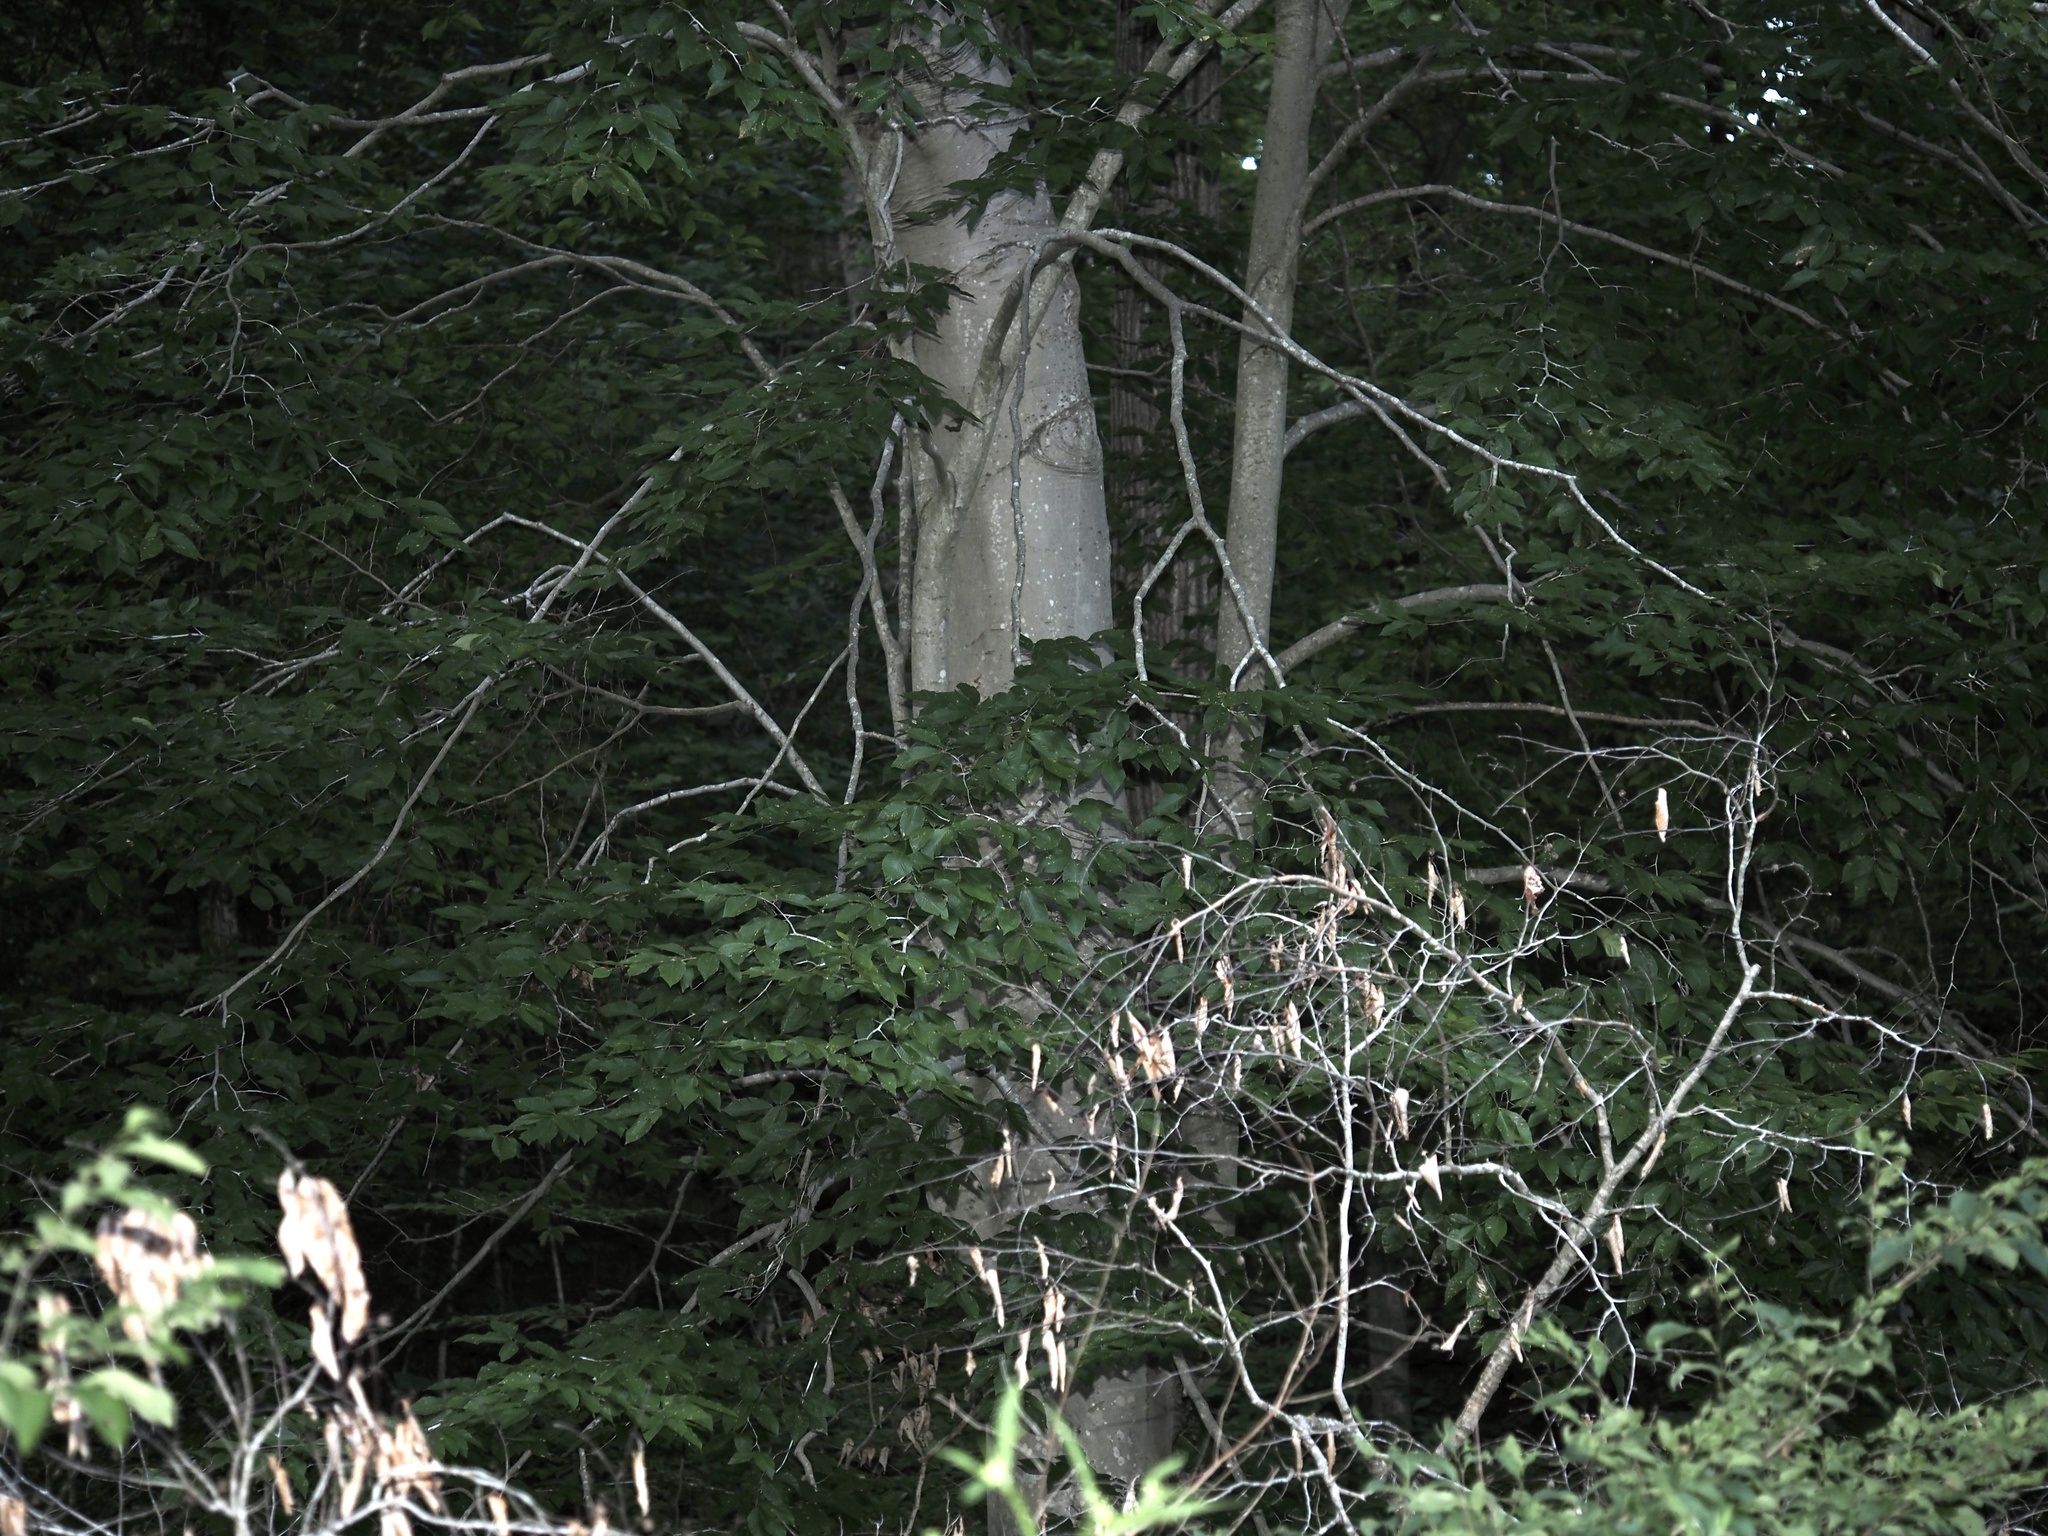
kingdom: Plantae
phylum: Tracheophyta
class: Magnoliopsida
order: Fagales
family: Fagaceae
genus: Fagus
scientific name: Fagus grandifolia
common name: American beech
